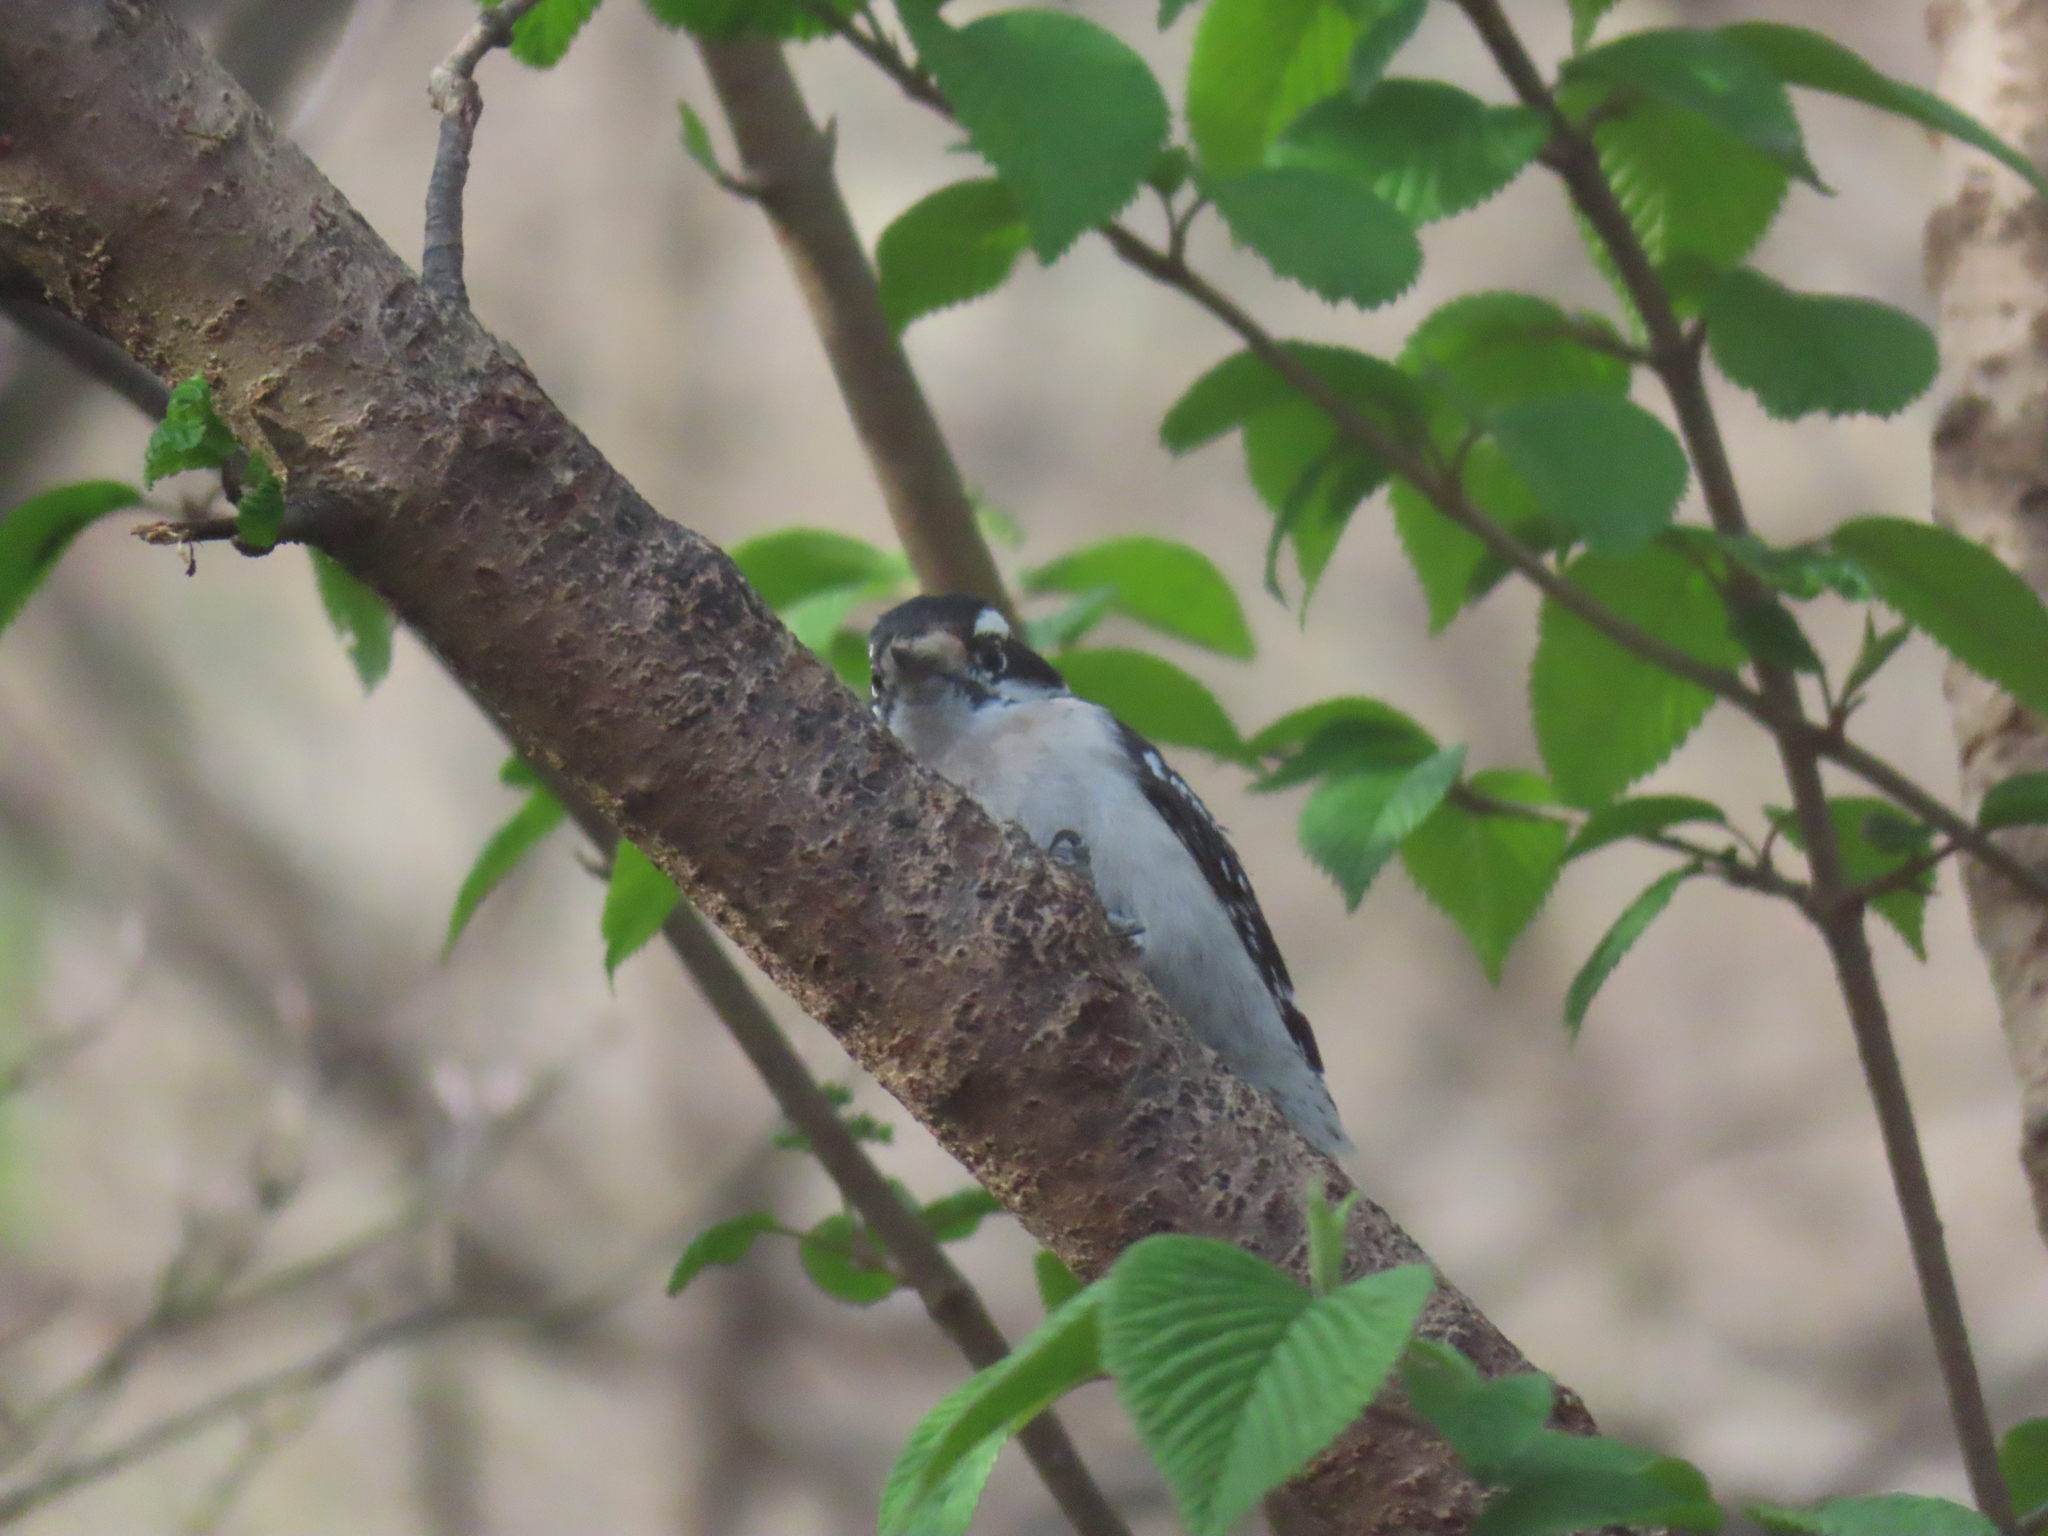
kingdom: Animalia
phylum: Chordata
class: Aves
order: Piciformes
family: Picidae
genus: Dryobates
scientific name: Dryobates pubescens
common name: Downy woodpecker
